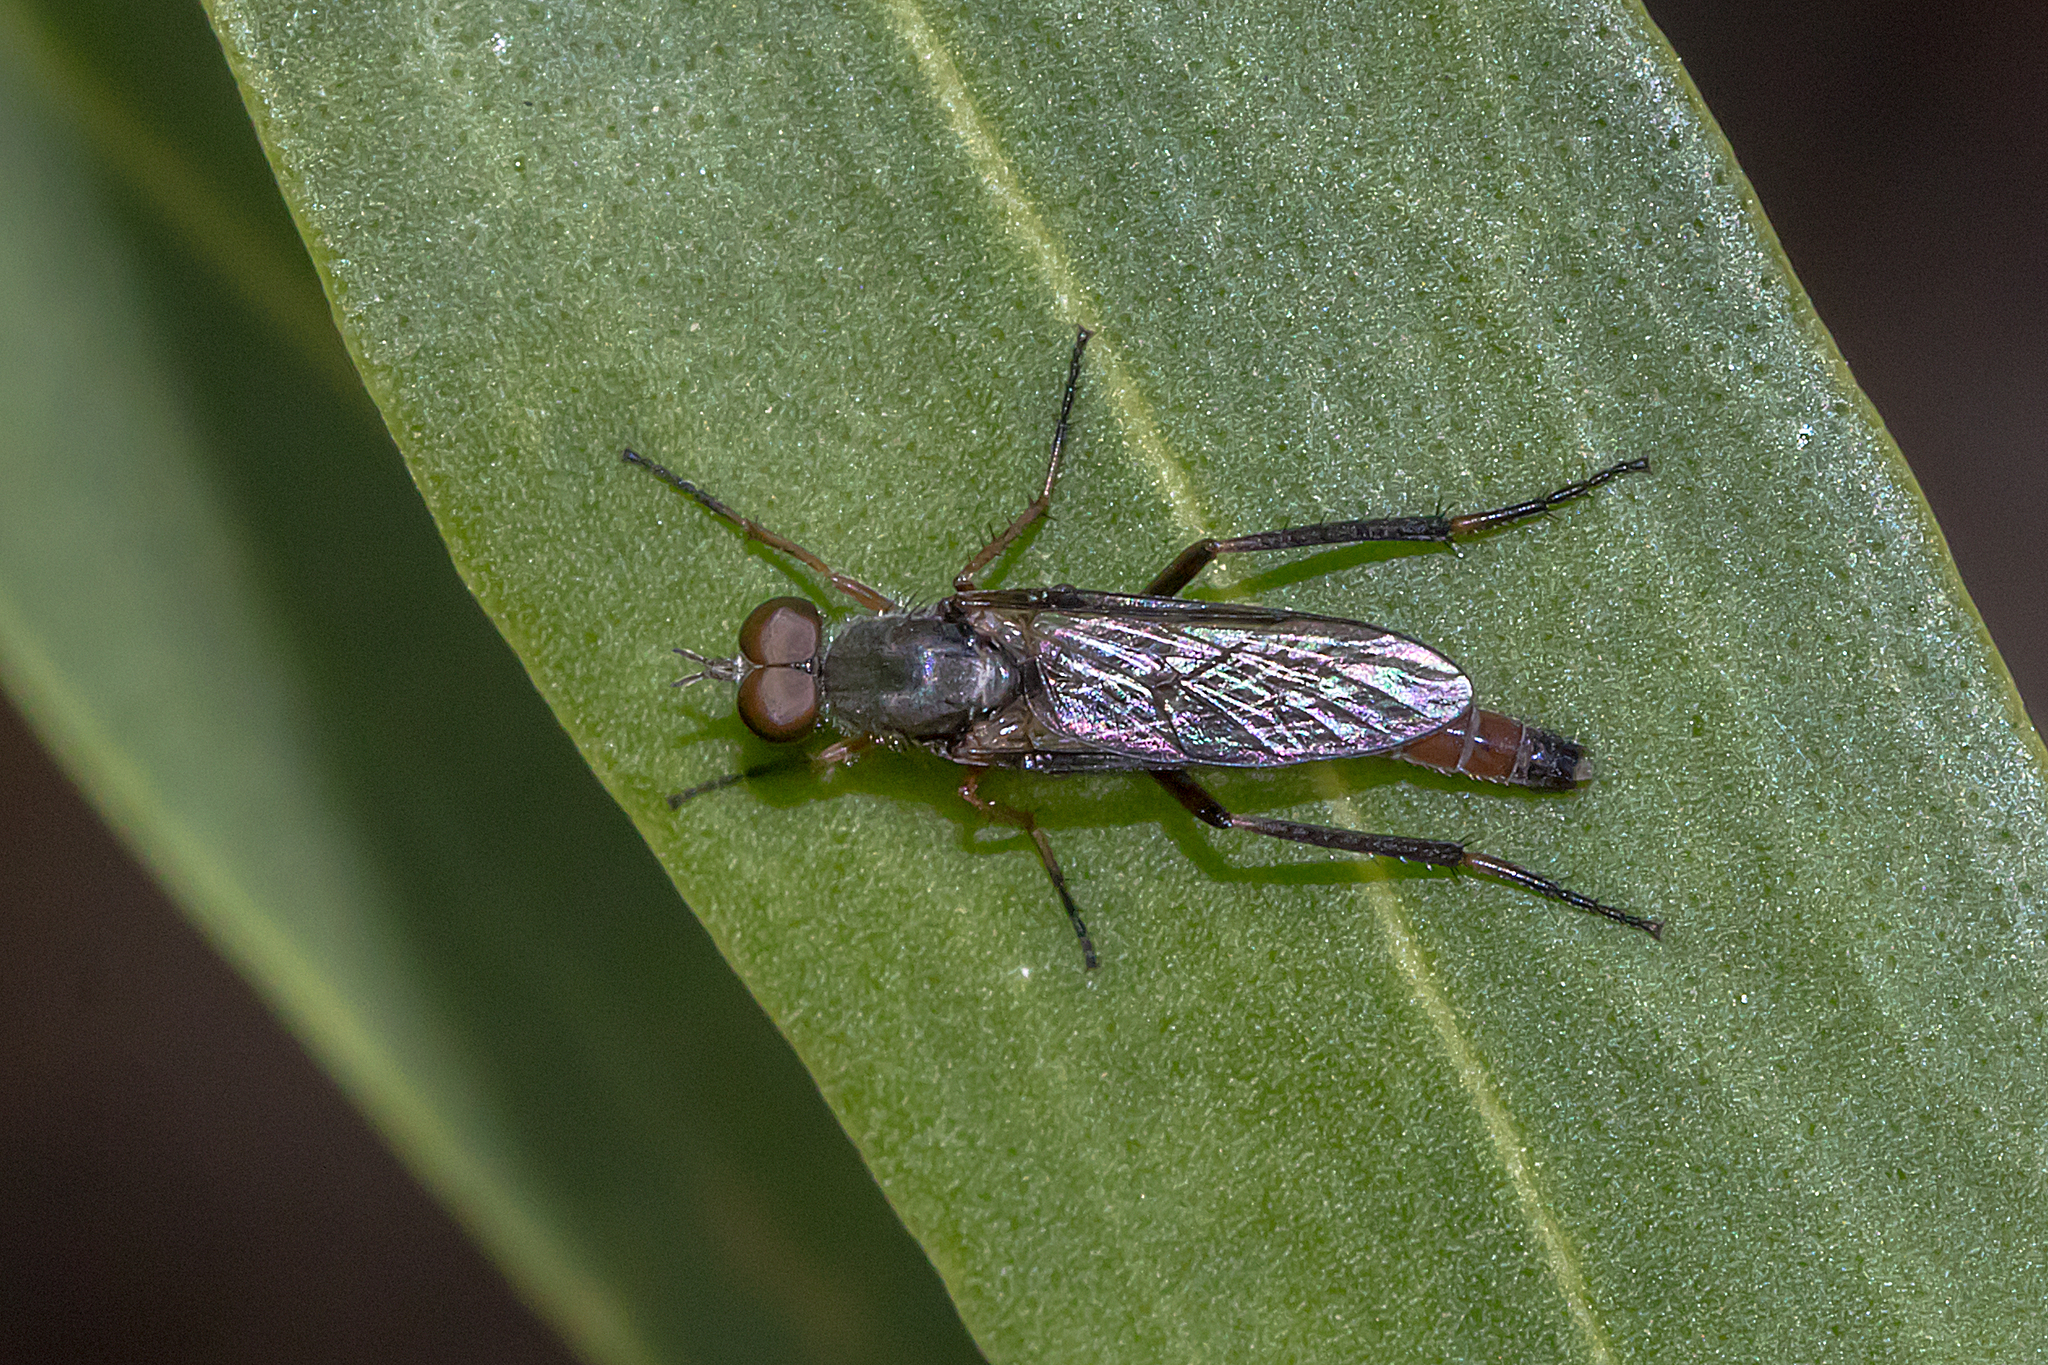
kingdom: Animalia
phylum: Arthropoda
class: Insecta
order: Diptera
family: Therevidae
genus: Taenogerella
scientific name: Taenogerella elizabethae
